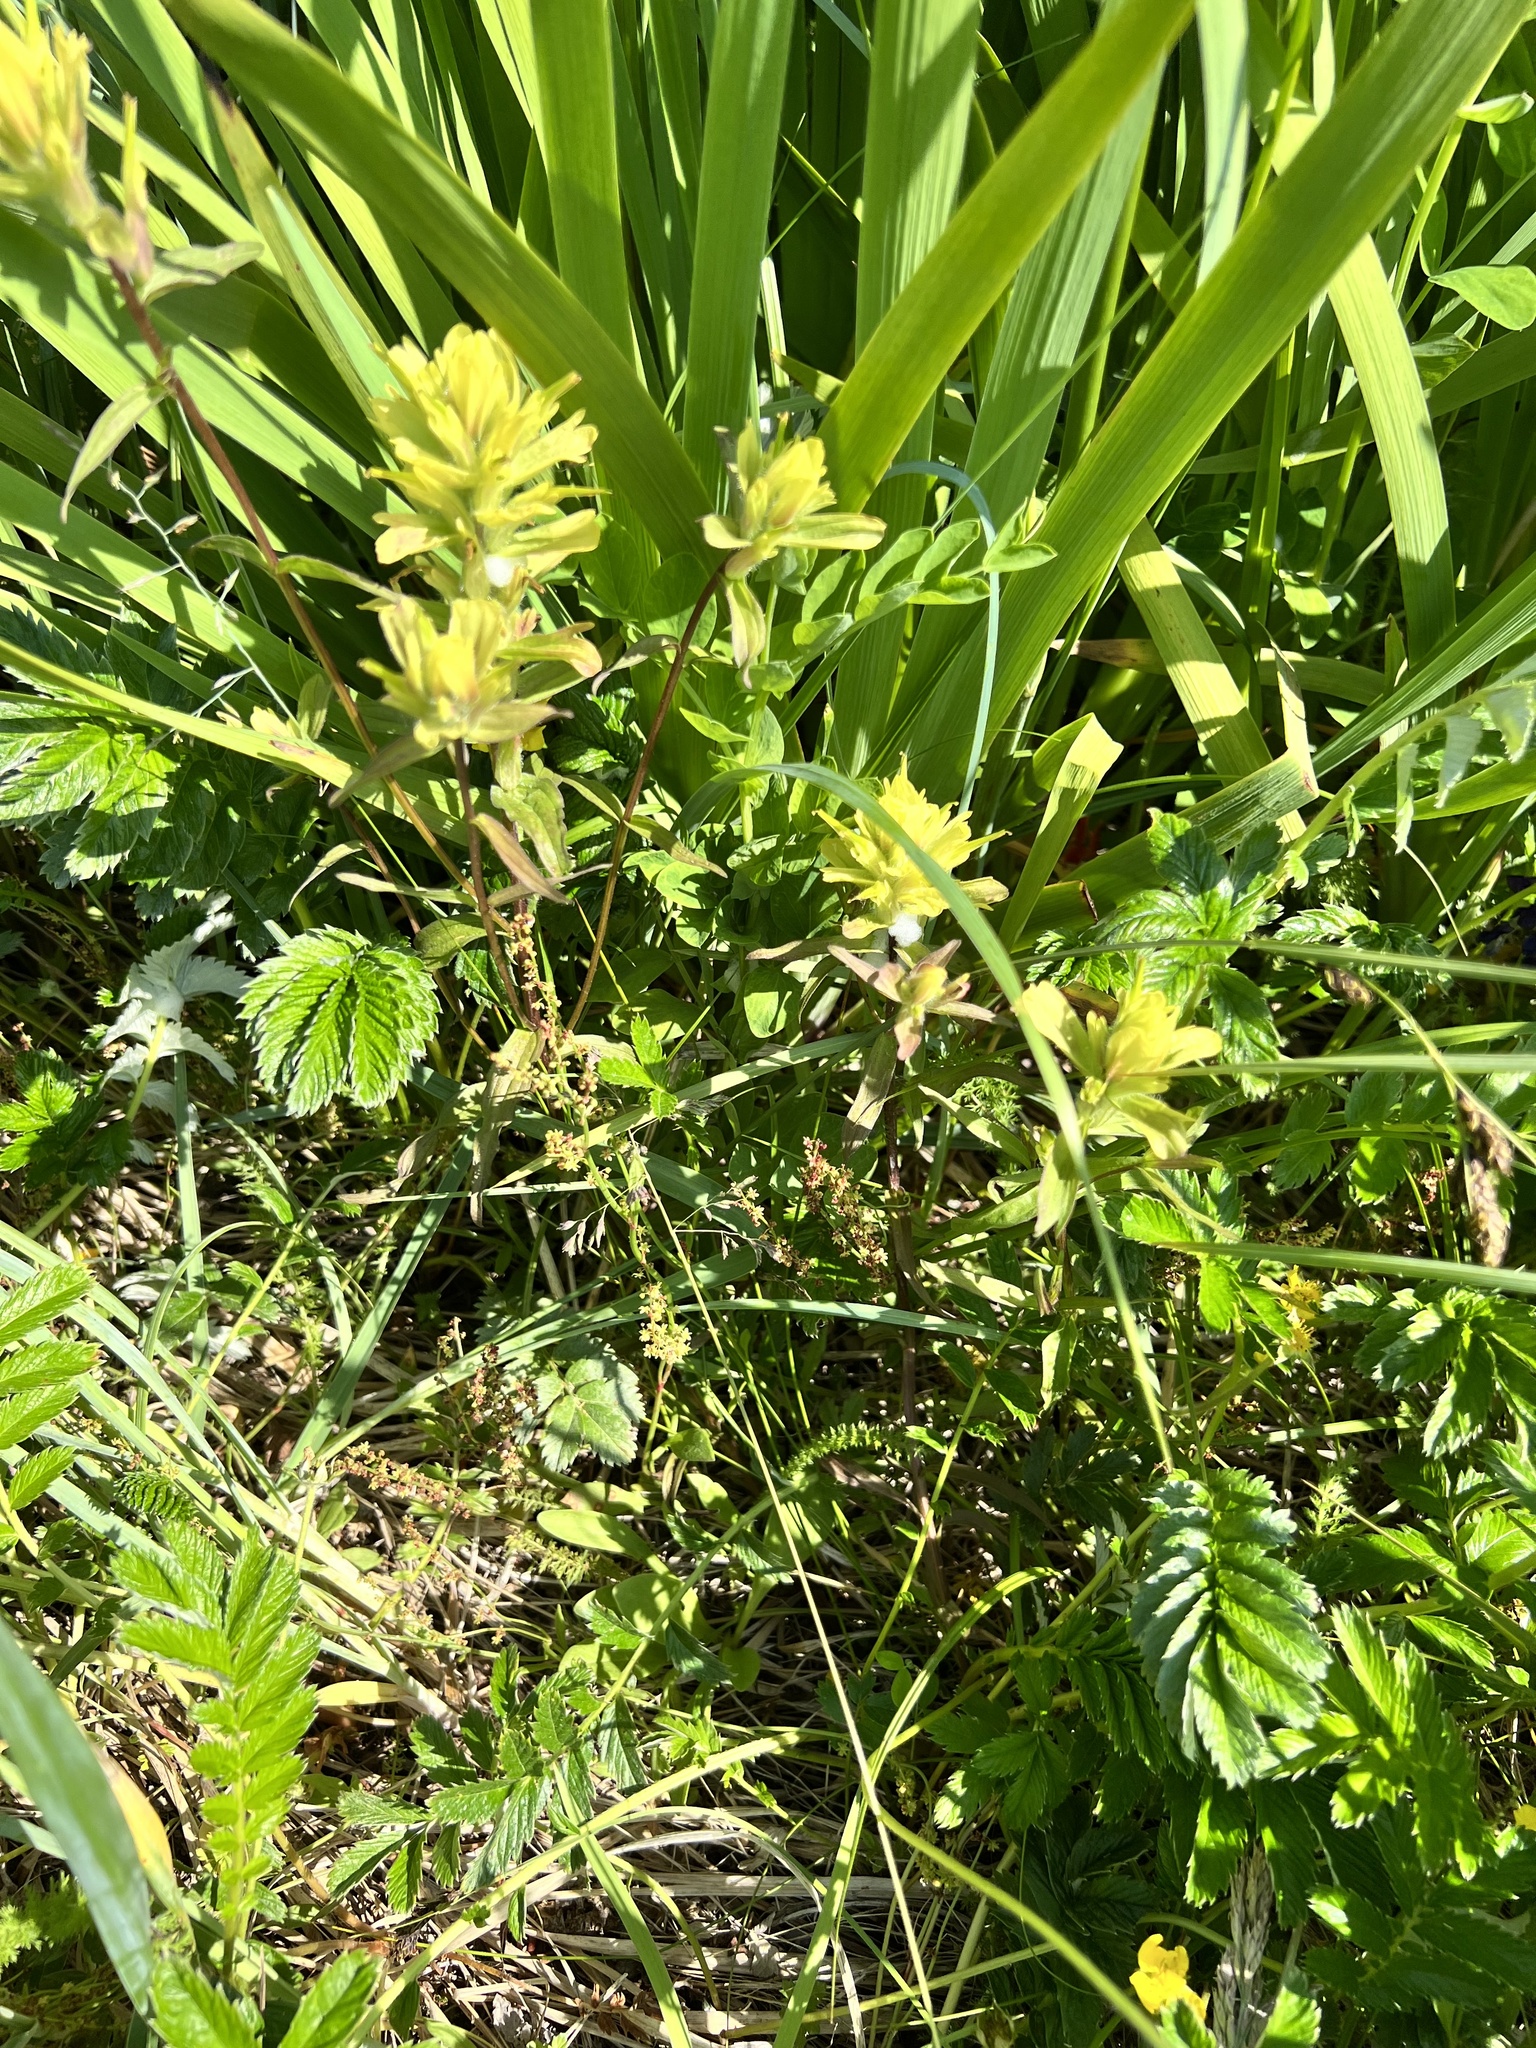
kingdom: Plantae
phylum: Tracheophyta
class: Magnoliopsida
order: Lamiales
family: Orobanchaceae
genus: Castilleja
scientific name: Castilleja unalaschcensis
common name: Unalaska paintbrush
